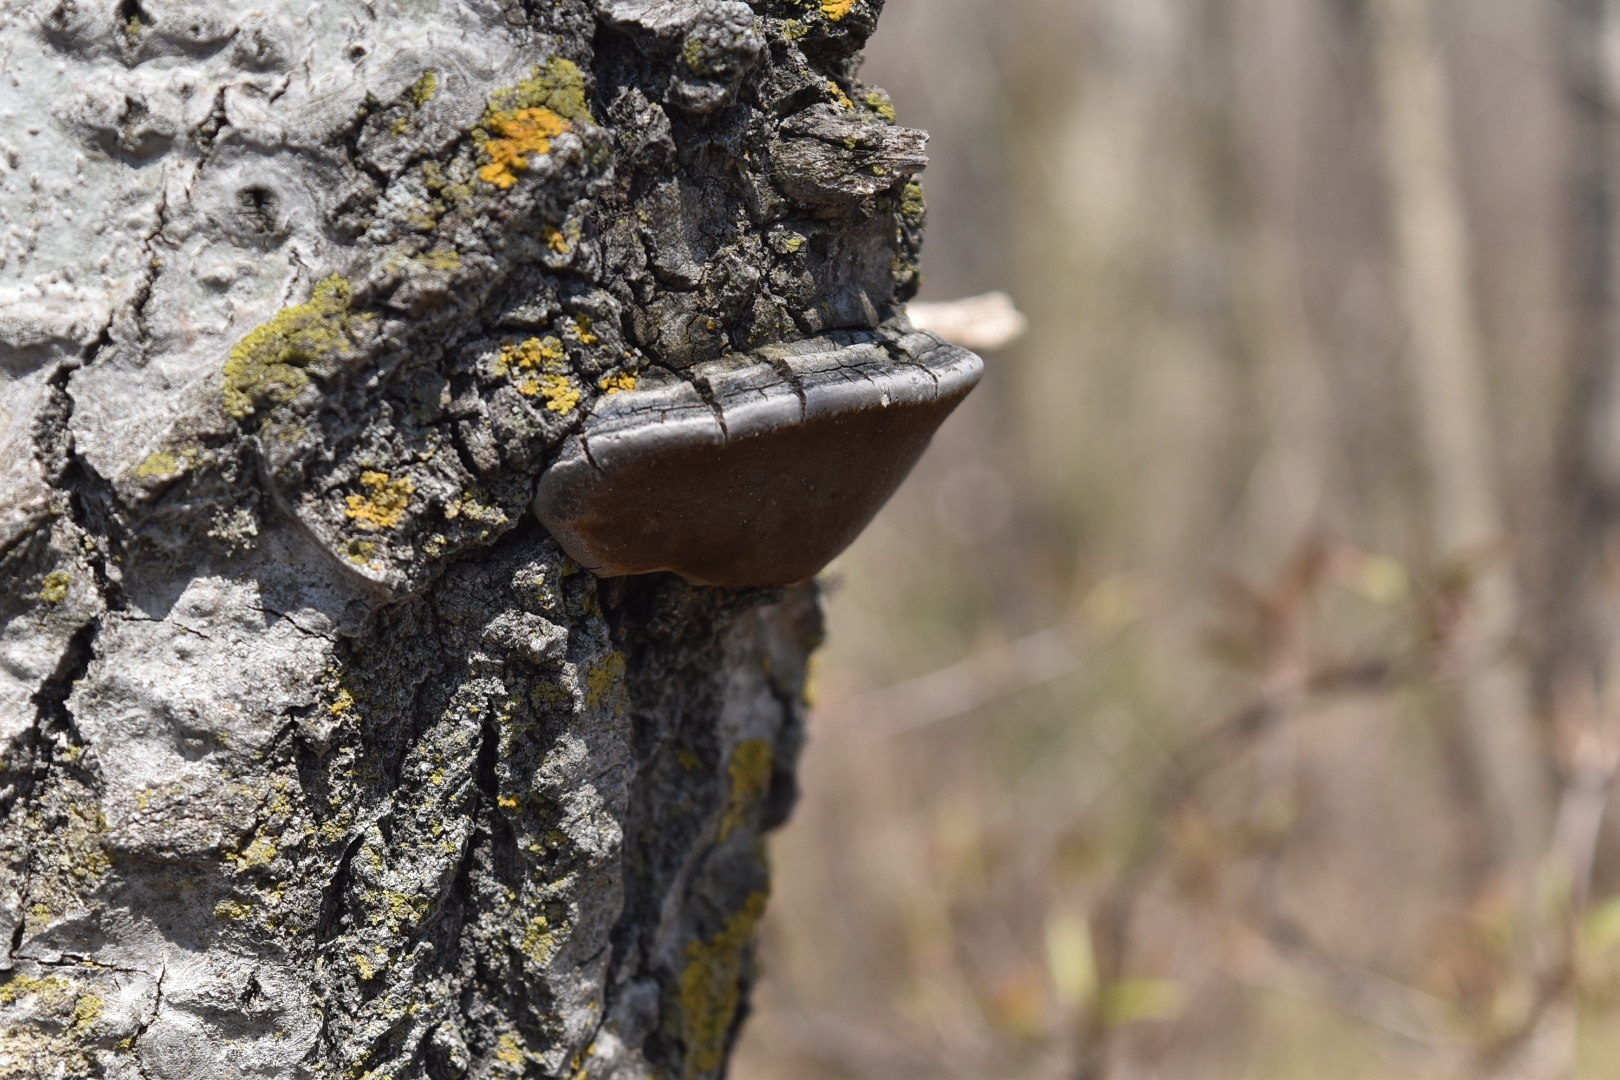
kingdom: Fungi
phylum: Basidiomycota
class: Agaricomycetes
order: Hymenochaetales
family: Hymenochaetaceae
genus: Phellinus
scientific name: Phellinus tremulae
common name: Aspen bracket
